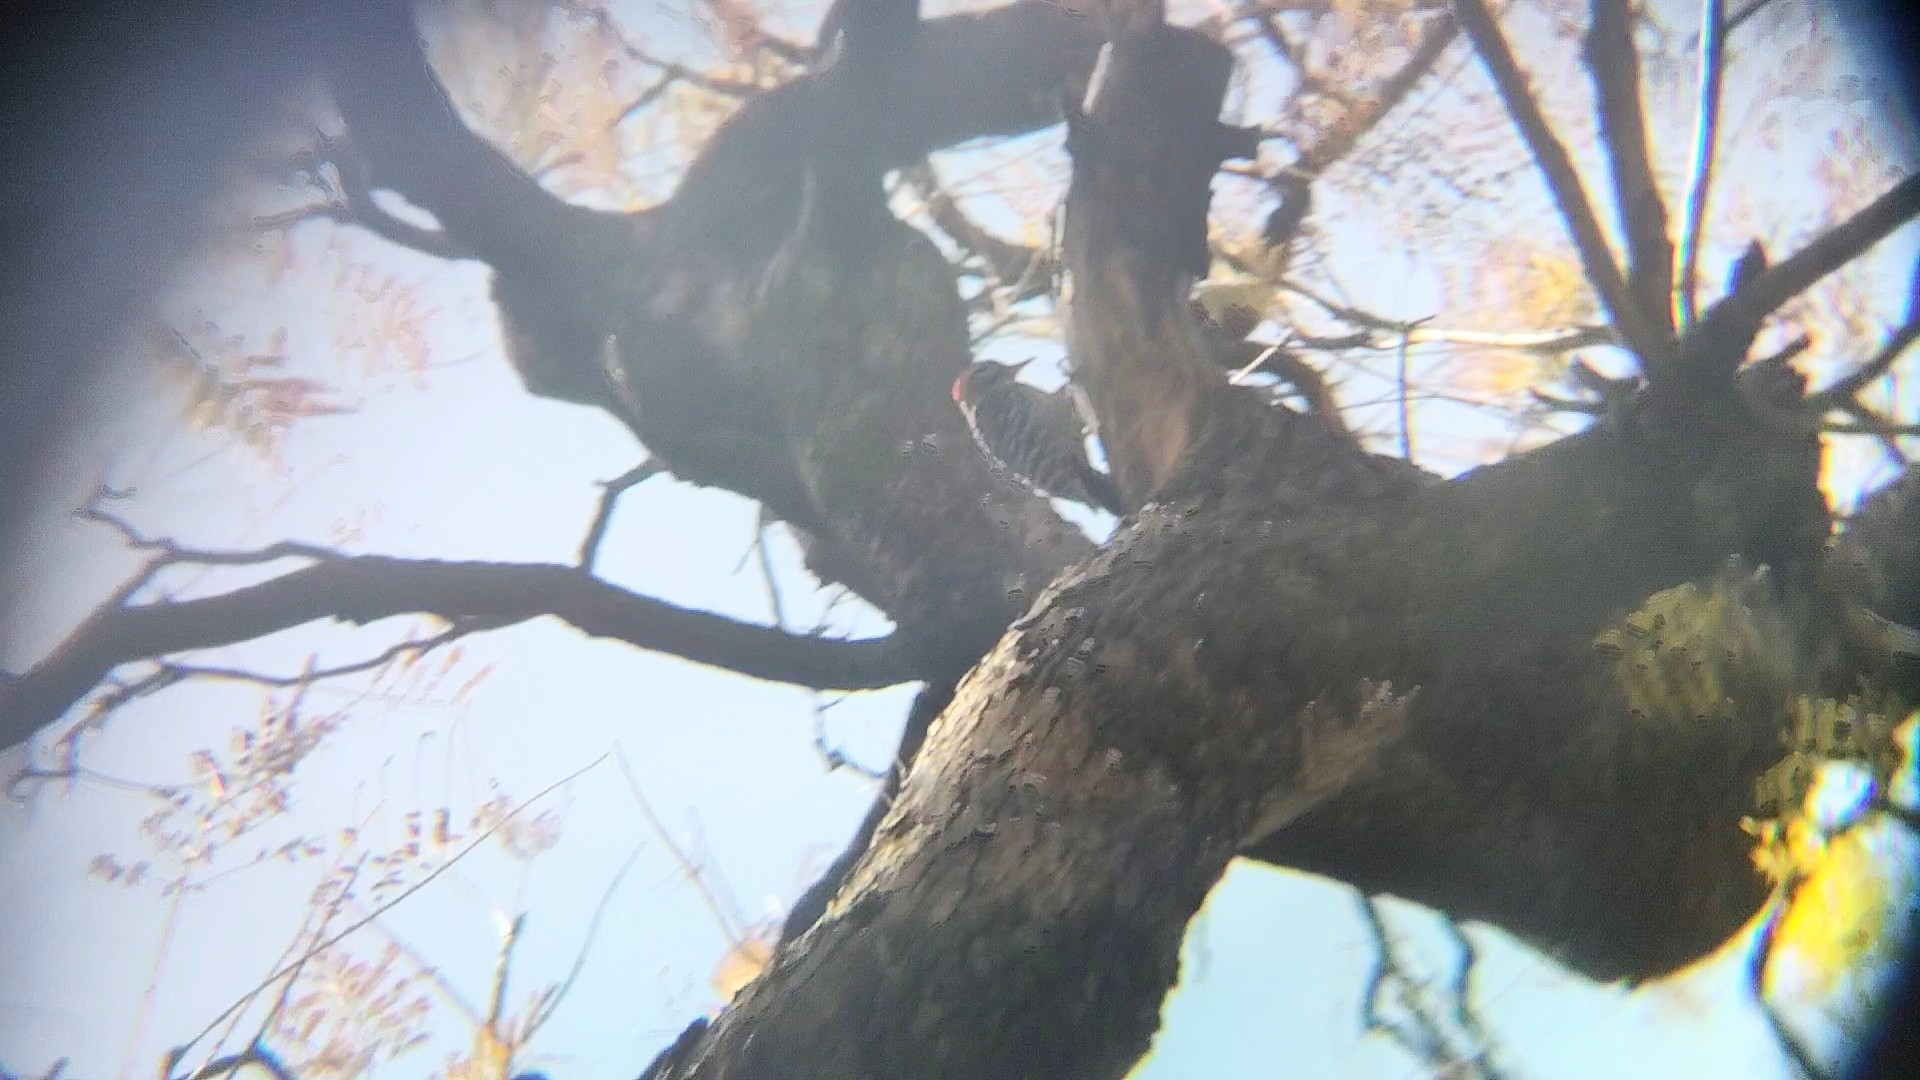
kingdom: Animalia
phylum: Chordata
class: Aves
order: Piciformes
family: Picidae
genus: Dryobates
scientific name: Dryobates scalaris
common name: Ladder-backed woodpecker
